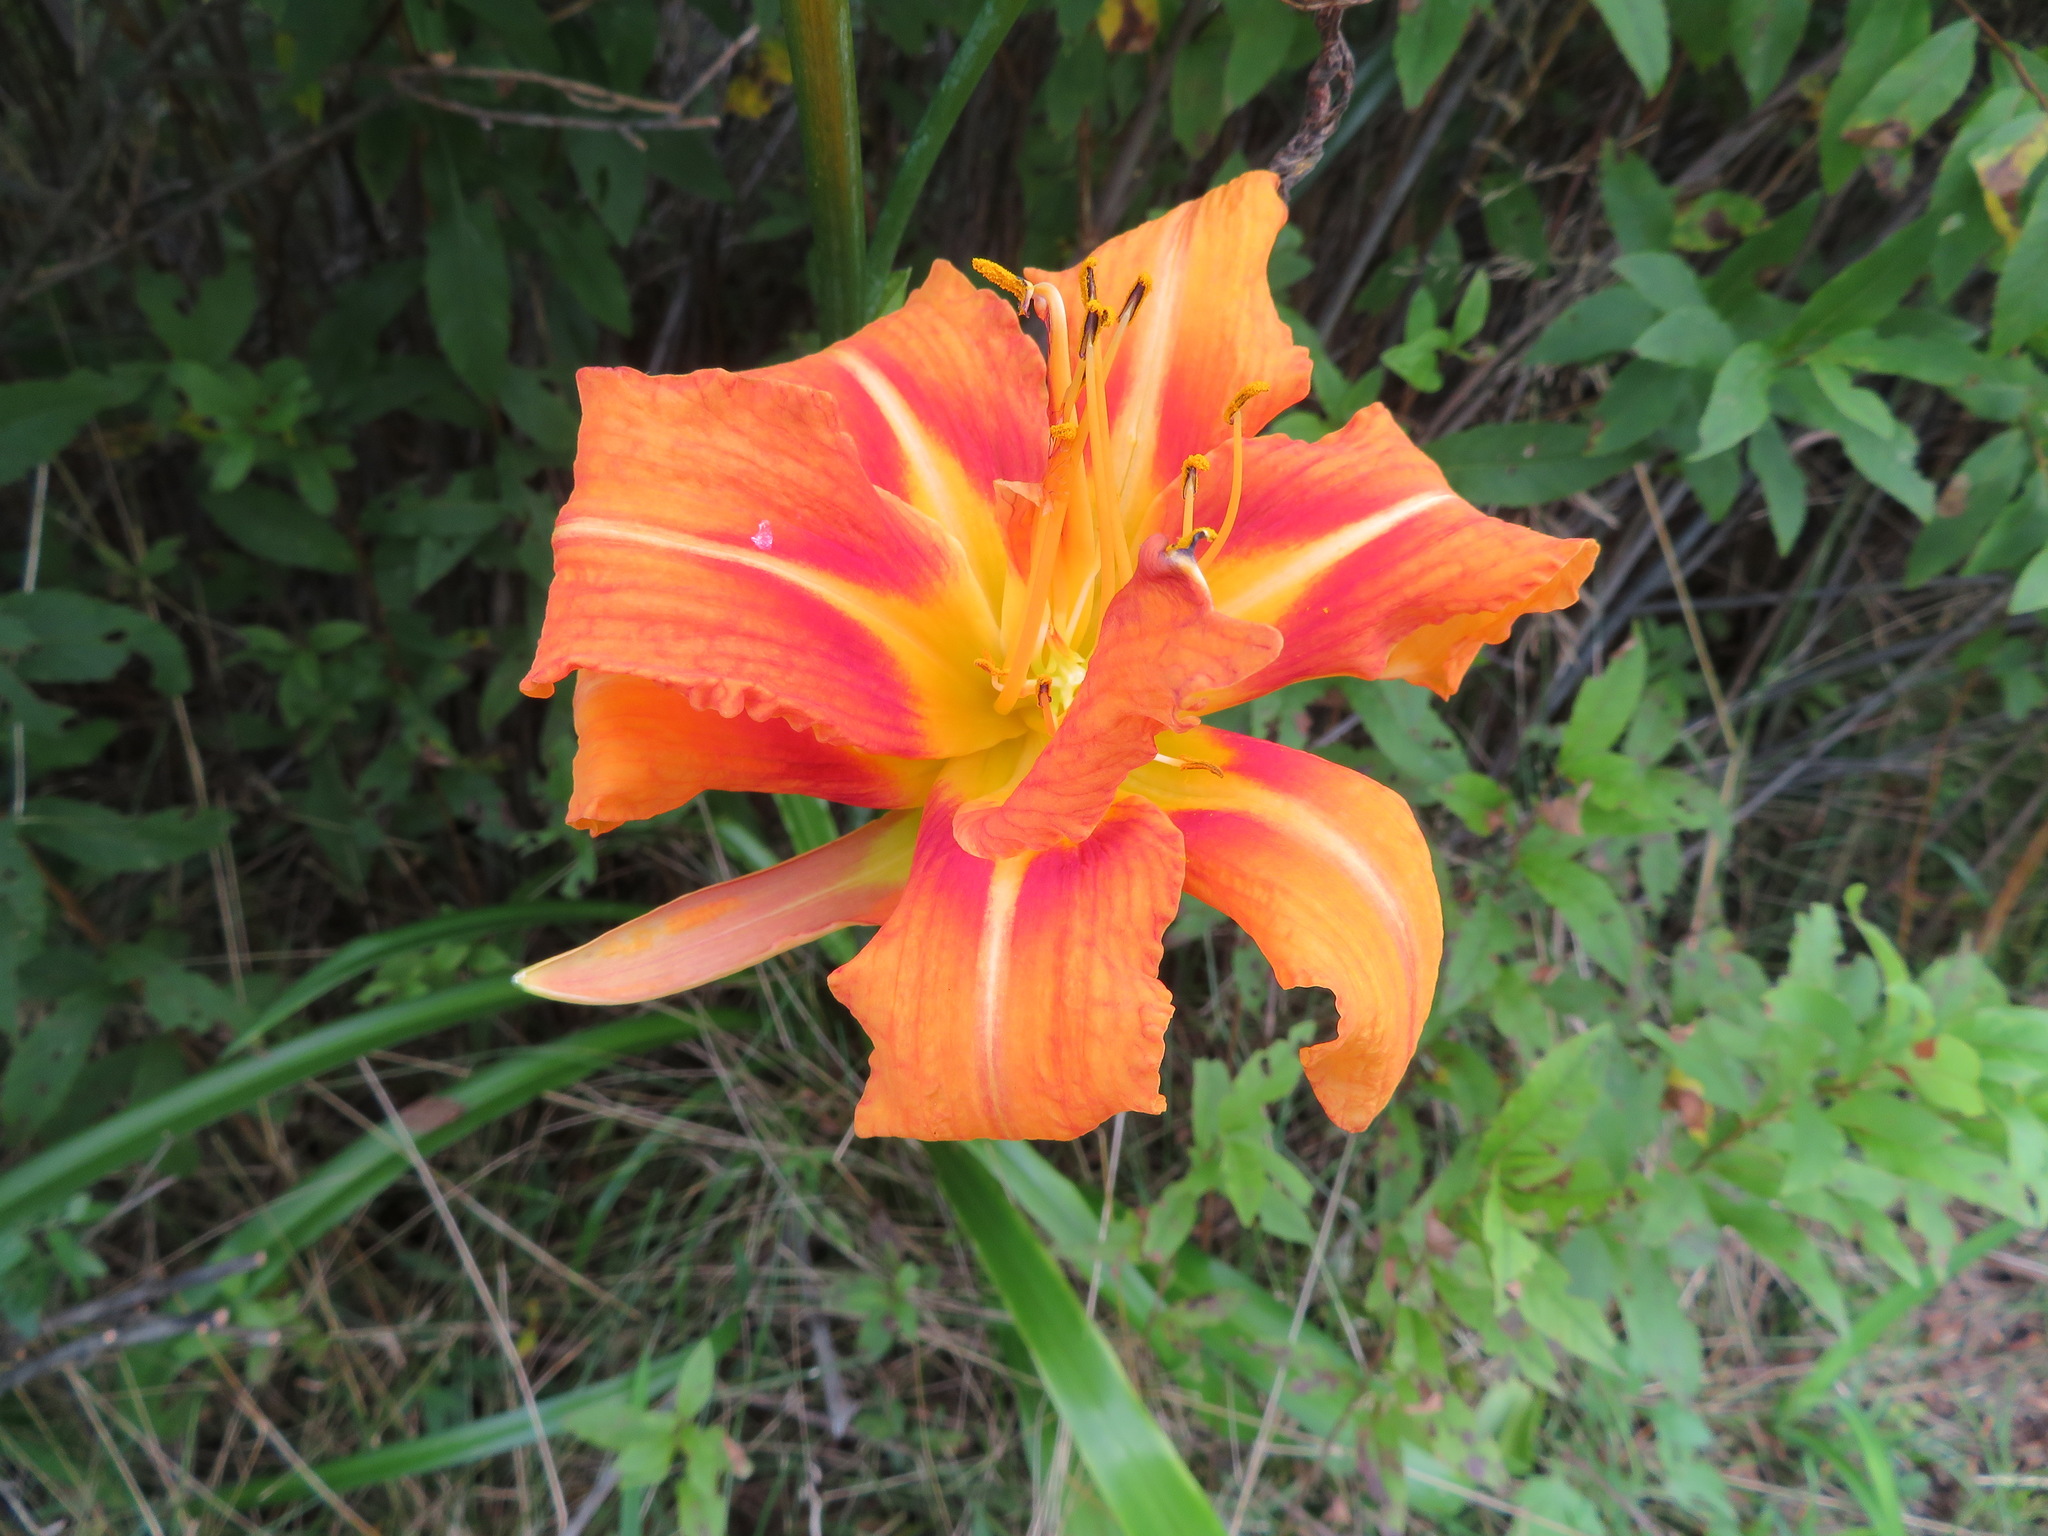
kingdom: Plantae
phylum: Tracheophyta
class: Liliopsida
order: Asparagales
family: Asphodelaceae
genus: Hemerocallis
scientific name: Hemerocallis fulva
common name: Orange day-lily
